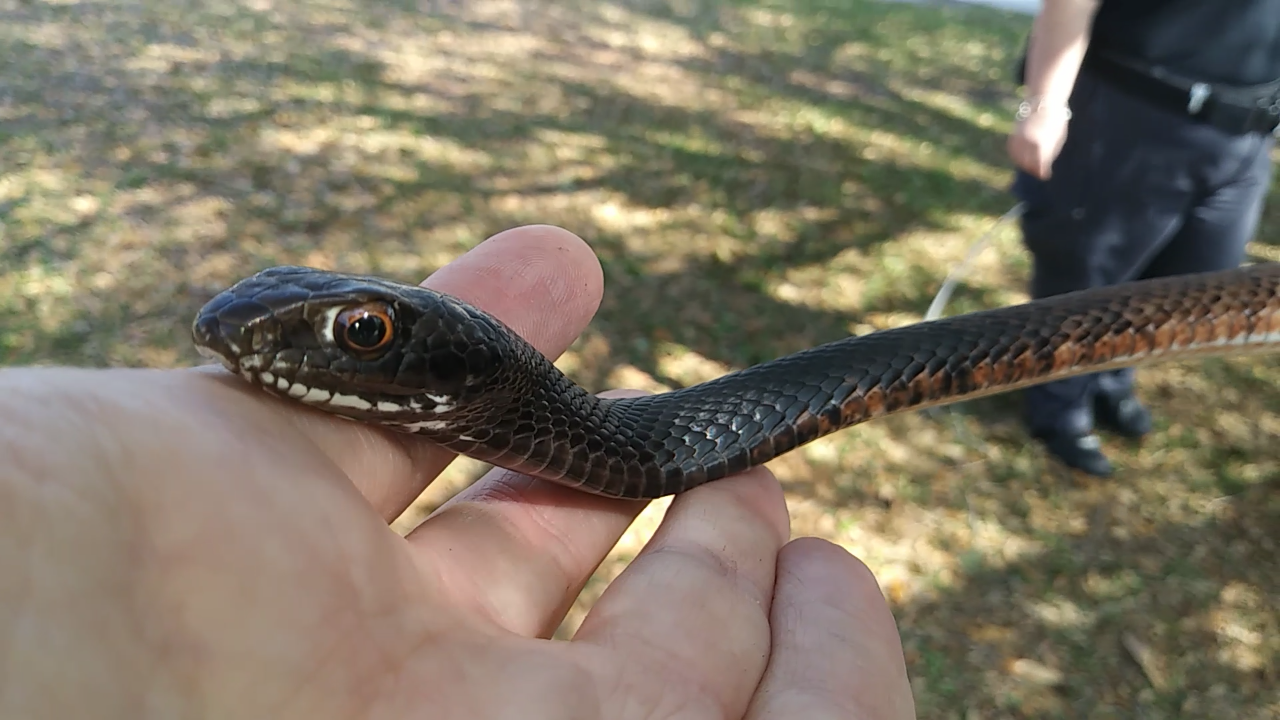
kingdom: Animalia
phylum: Chordata
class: Squamata
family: Colubridae
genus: Masticophis
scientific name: Masticophis flagellum
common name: Coachwhip
